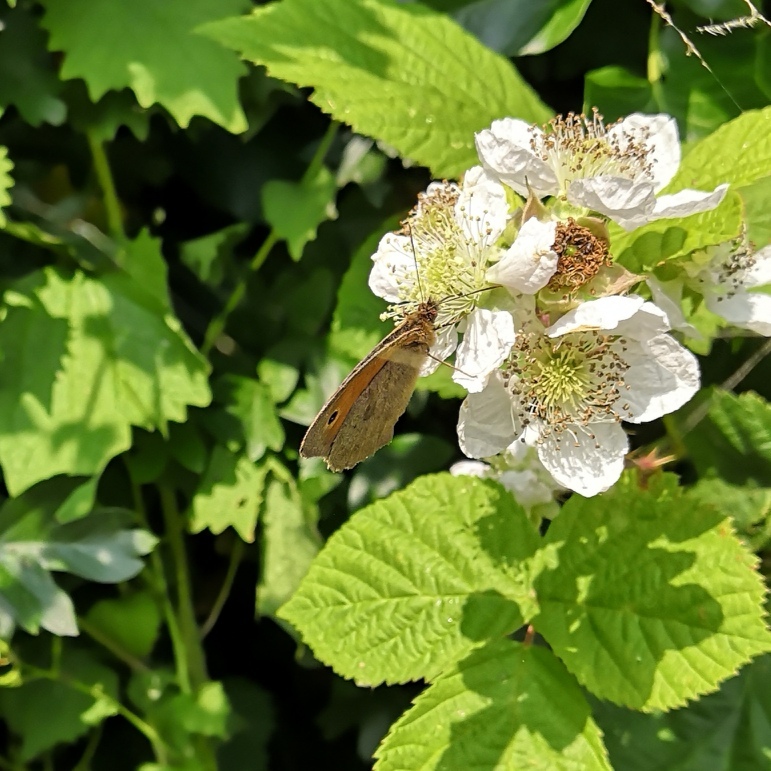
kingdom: Animalia
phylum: Arthropoda
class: Insecta
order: Lepidoptera
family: Nymphalidae
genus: Maniola
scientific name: Maniola jurtina
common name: Meadow brown
